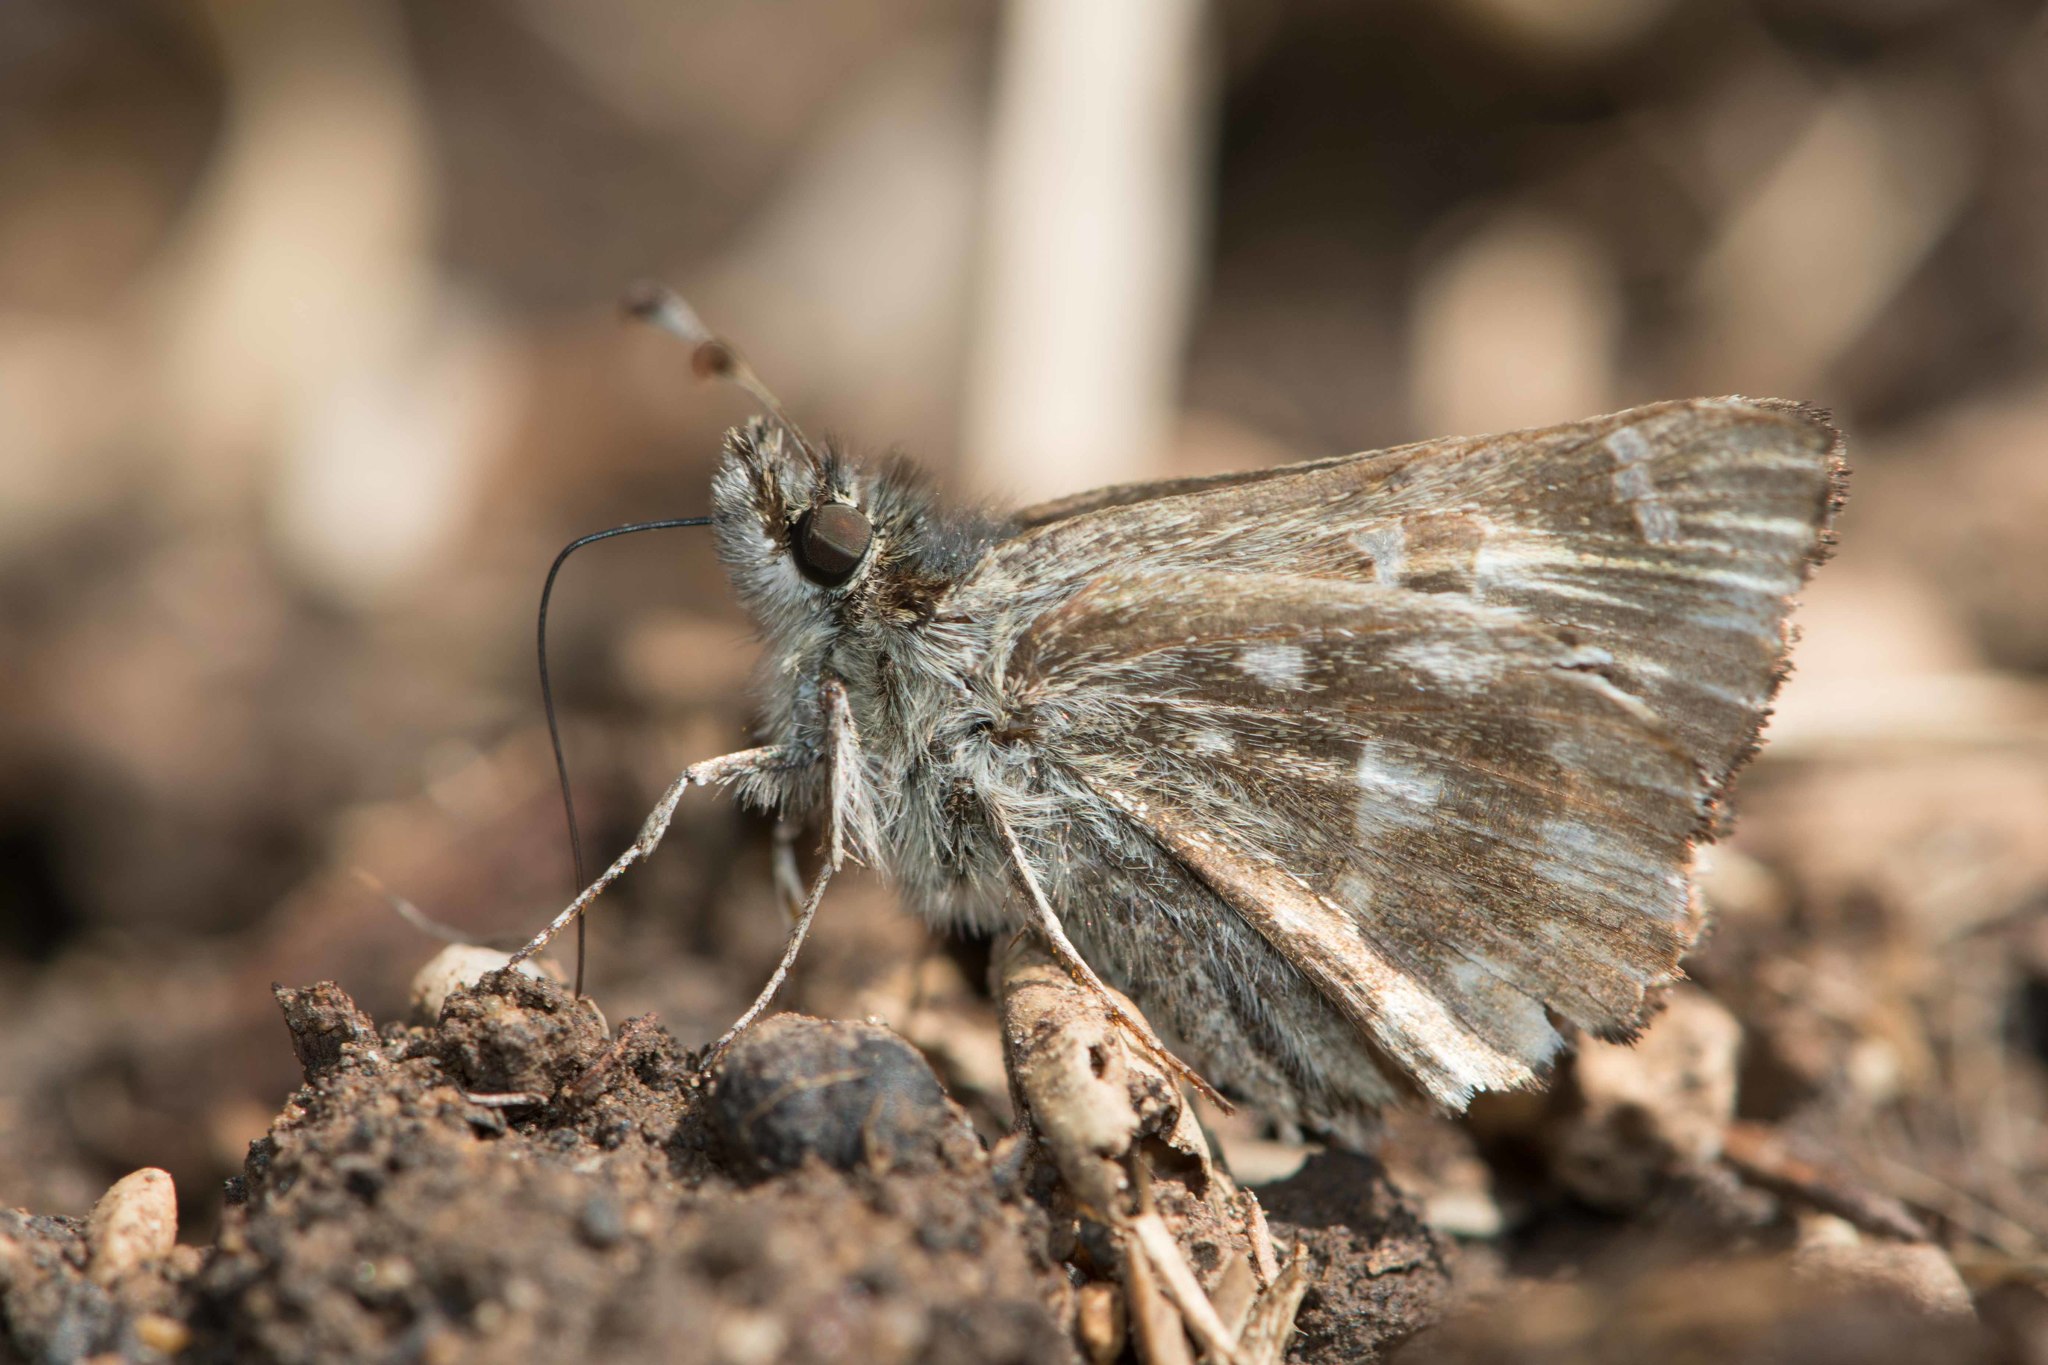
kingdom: Animalia
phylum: Arthropoda
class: Insecta
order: Lepidoptera
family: Hesperiidae
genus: Carcharodus
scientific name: Carcharodus alceae
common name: Mallow skipper
